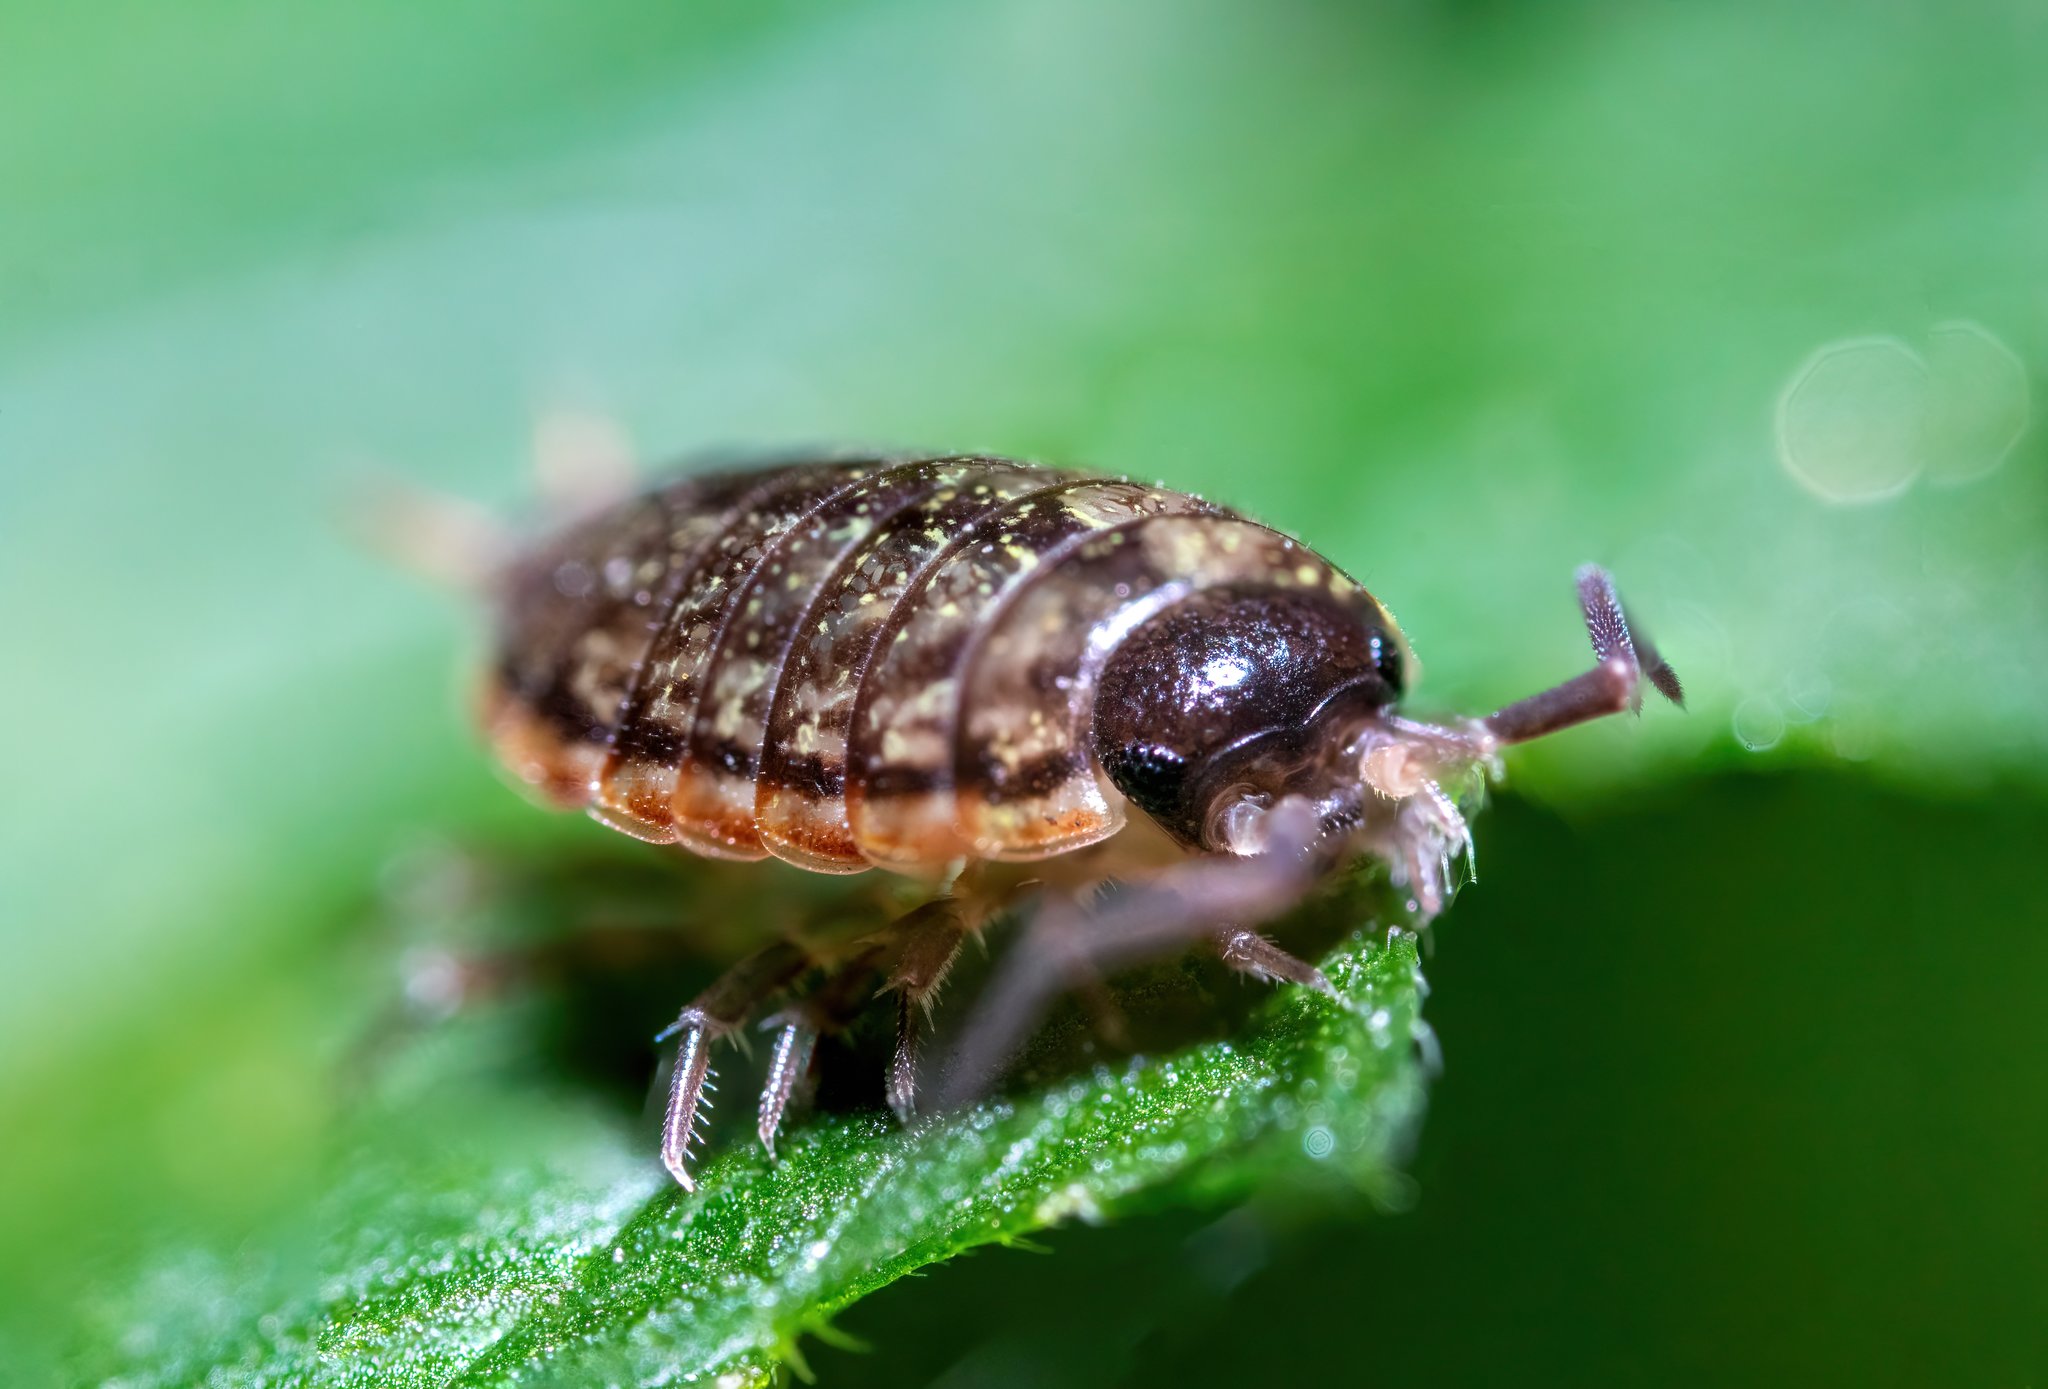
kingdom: Animalia
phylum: Arthropoda
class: Malacostraca
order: Isopoda
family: Philosciidae
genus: Philoscia
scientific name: Philoscia muscorum
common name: Common striped woodlouse
